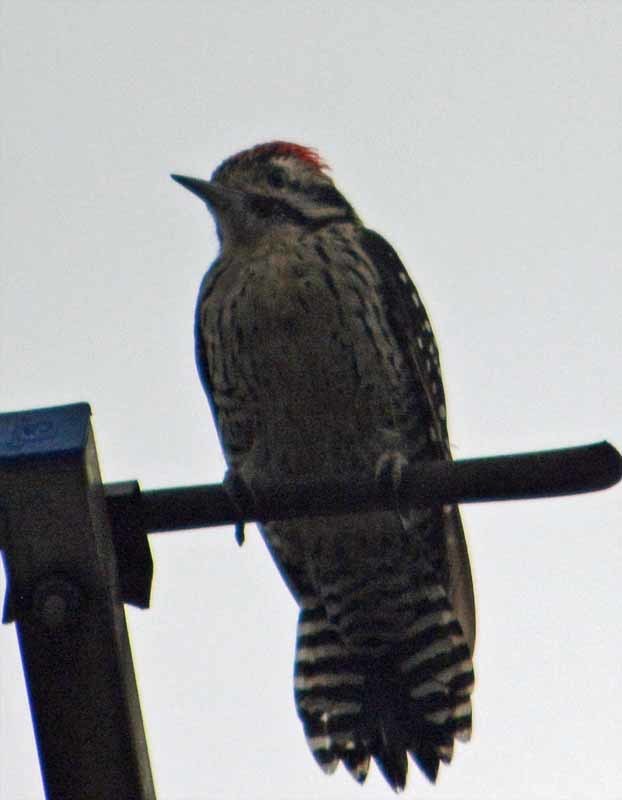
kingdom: Animalia
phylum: Chordata
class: Aves
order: Piciformes
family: Picidae
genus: Dryobates
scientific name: Dryobates scalaris
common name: Ladder-backed woodpecker
